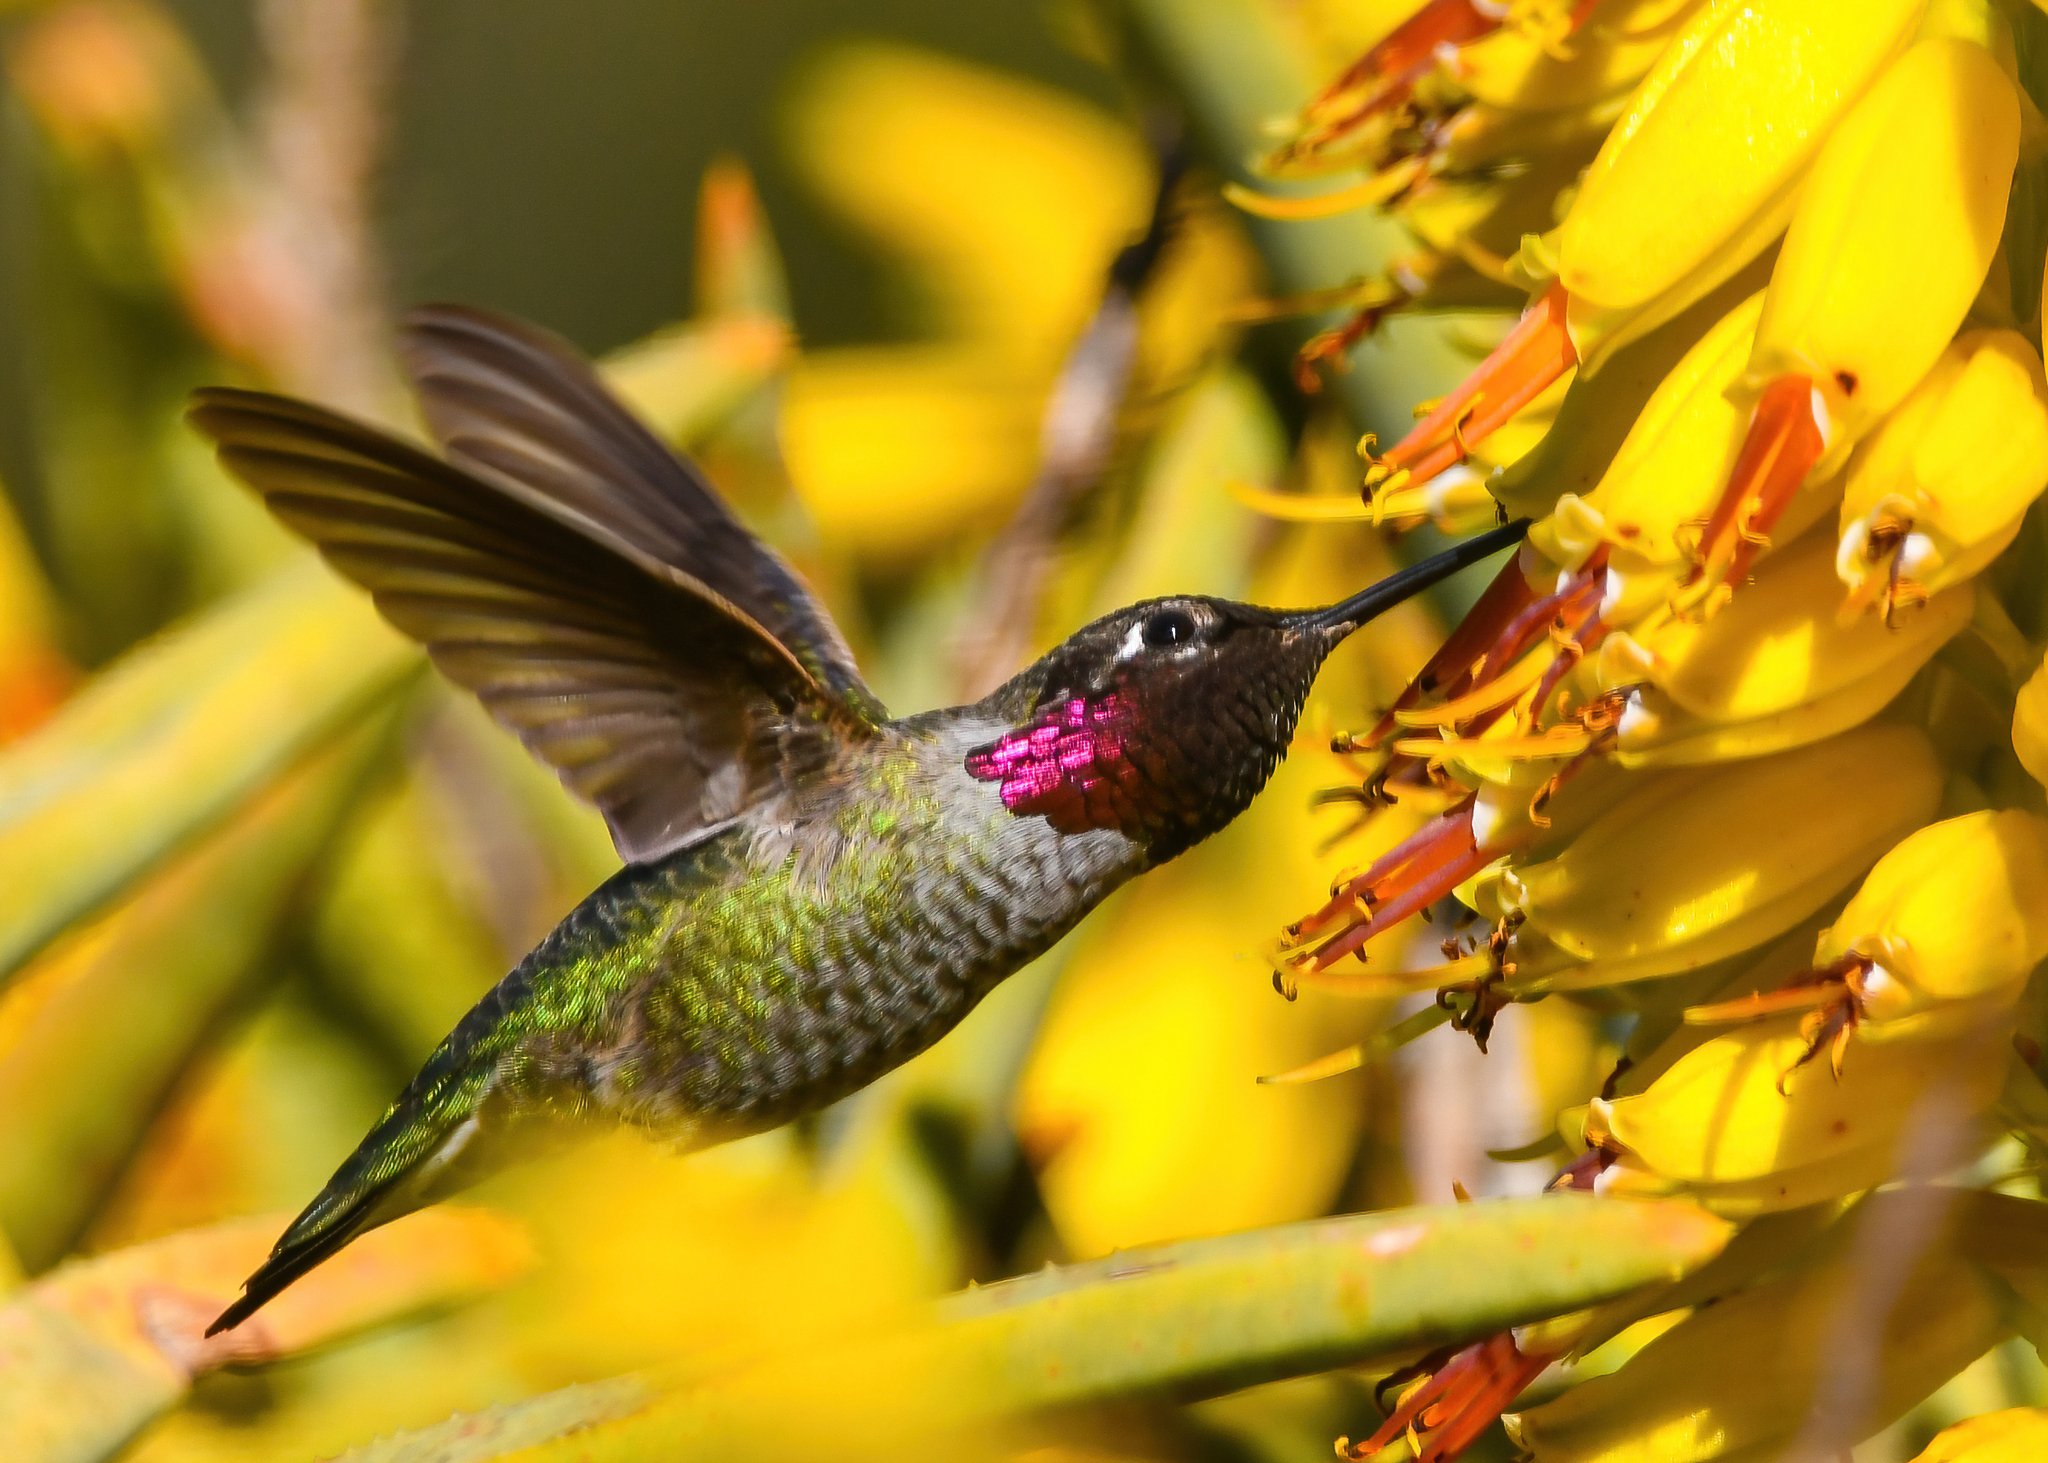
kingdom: Animalia
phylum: Chordata
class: Aves
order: Apodiformes
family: Trochilidae
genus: Calypte
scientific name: Calypte anna
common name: Anna's hummingbird
